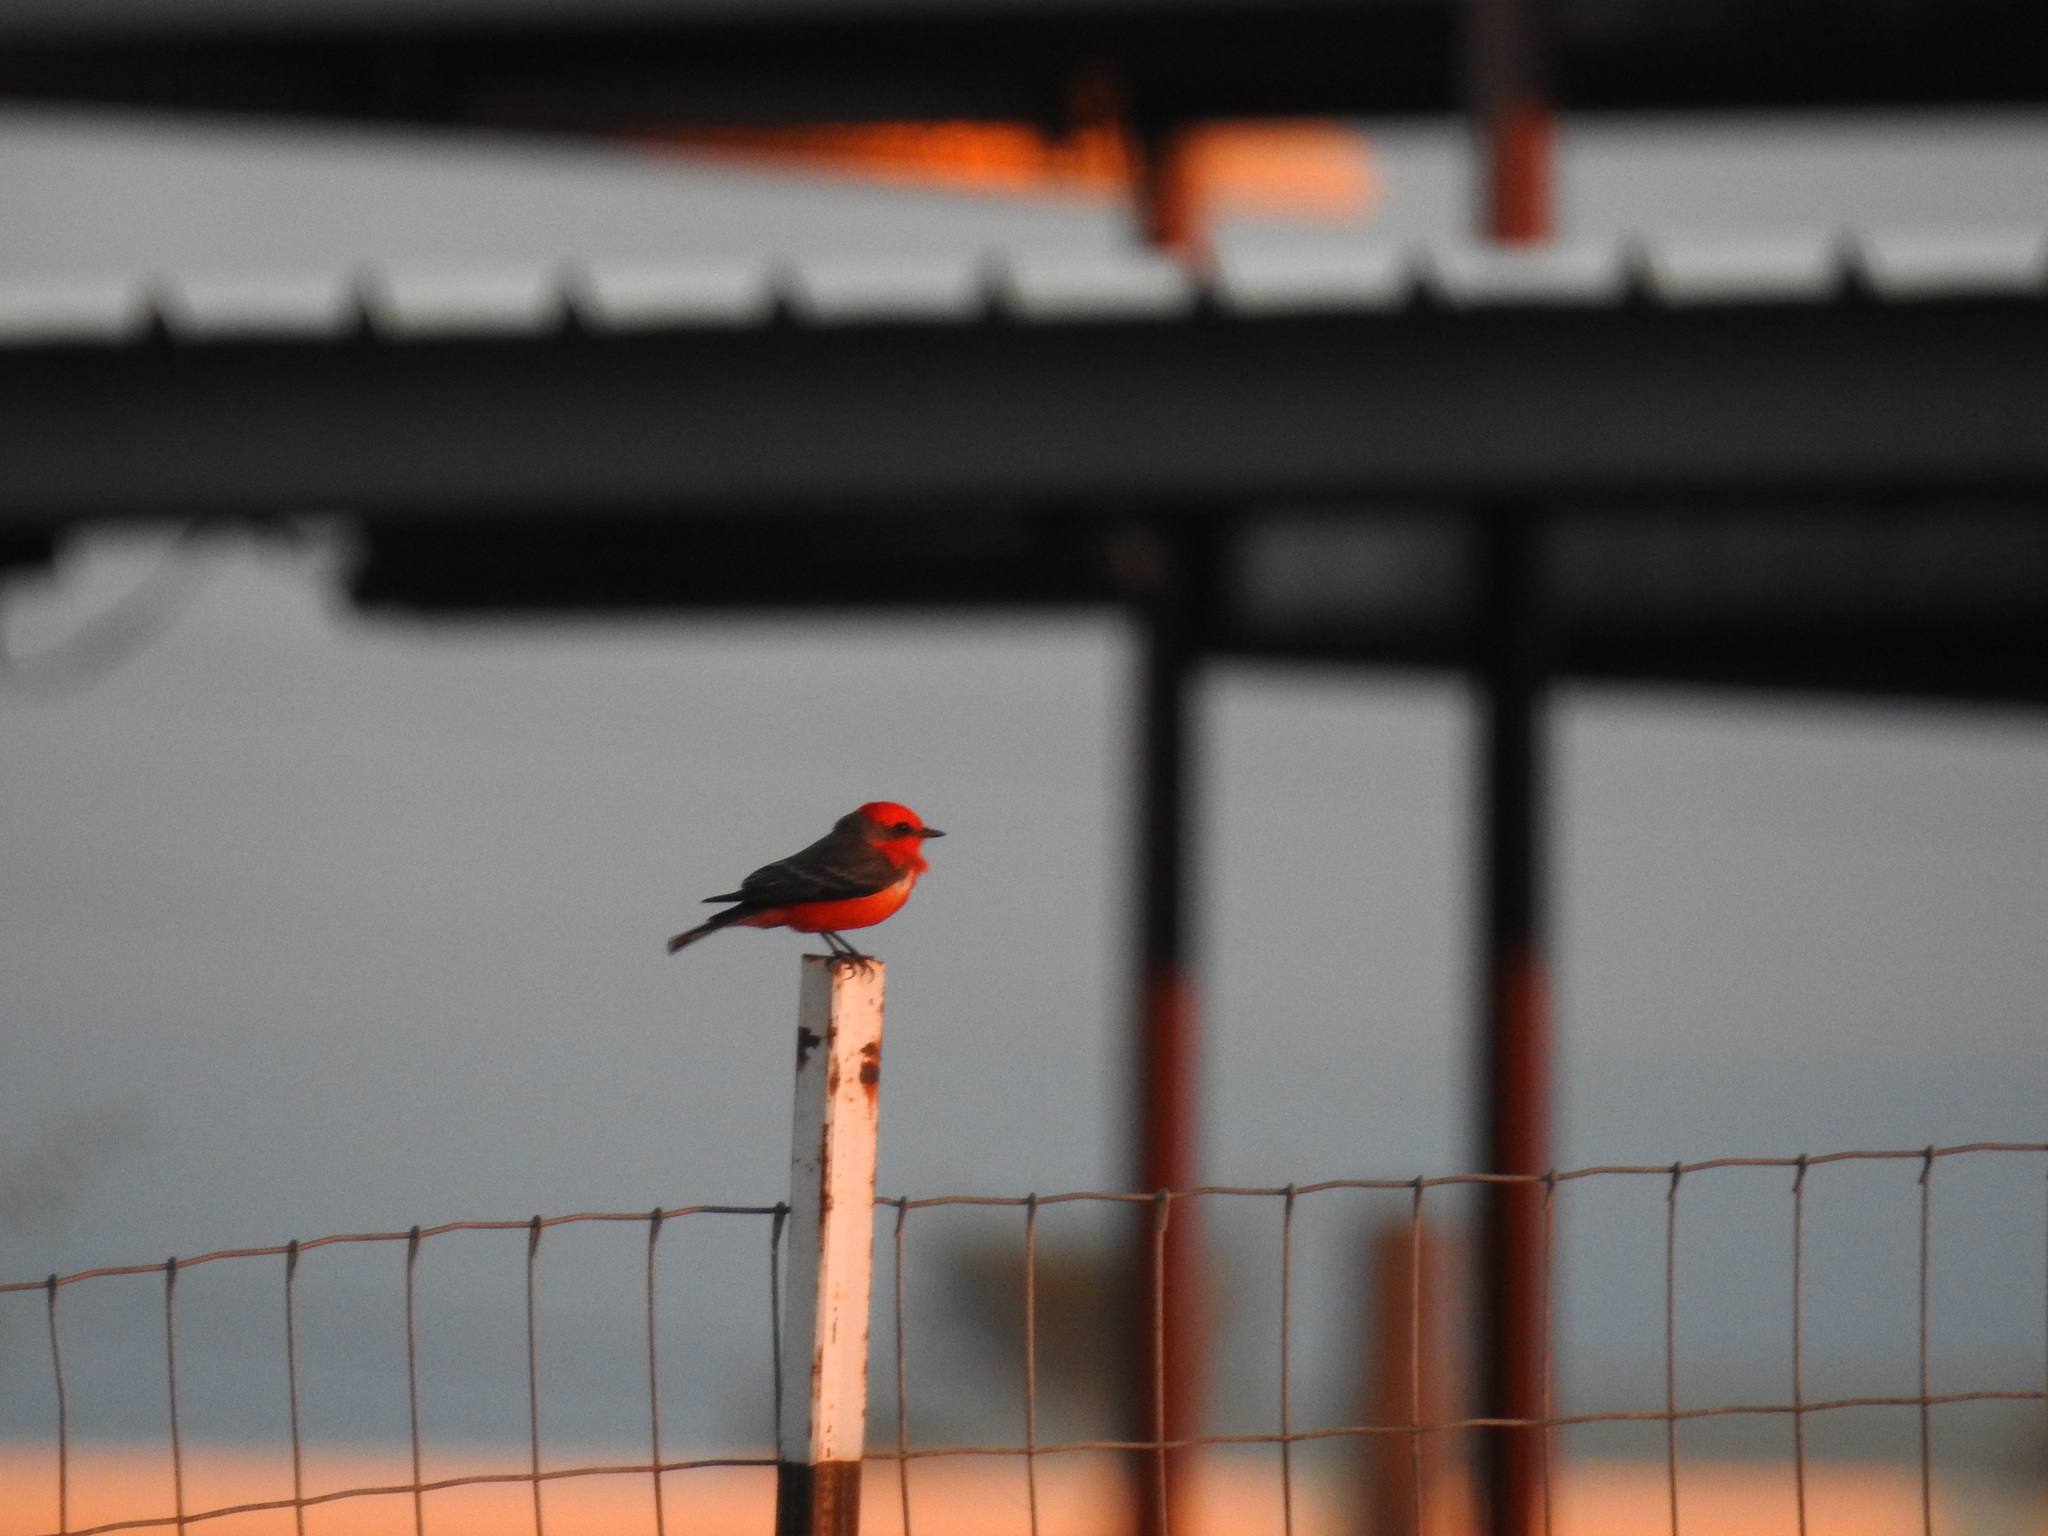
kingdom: Animalia
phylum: Chordata
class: Aves
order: Passeriformes
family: Tyrannidae
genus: Pyrocephalus
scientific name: Pyrocephalus rubinus
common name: Vermilion flycatcher
